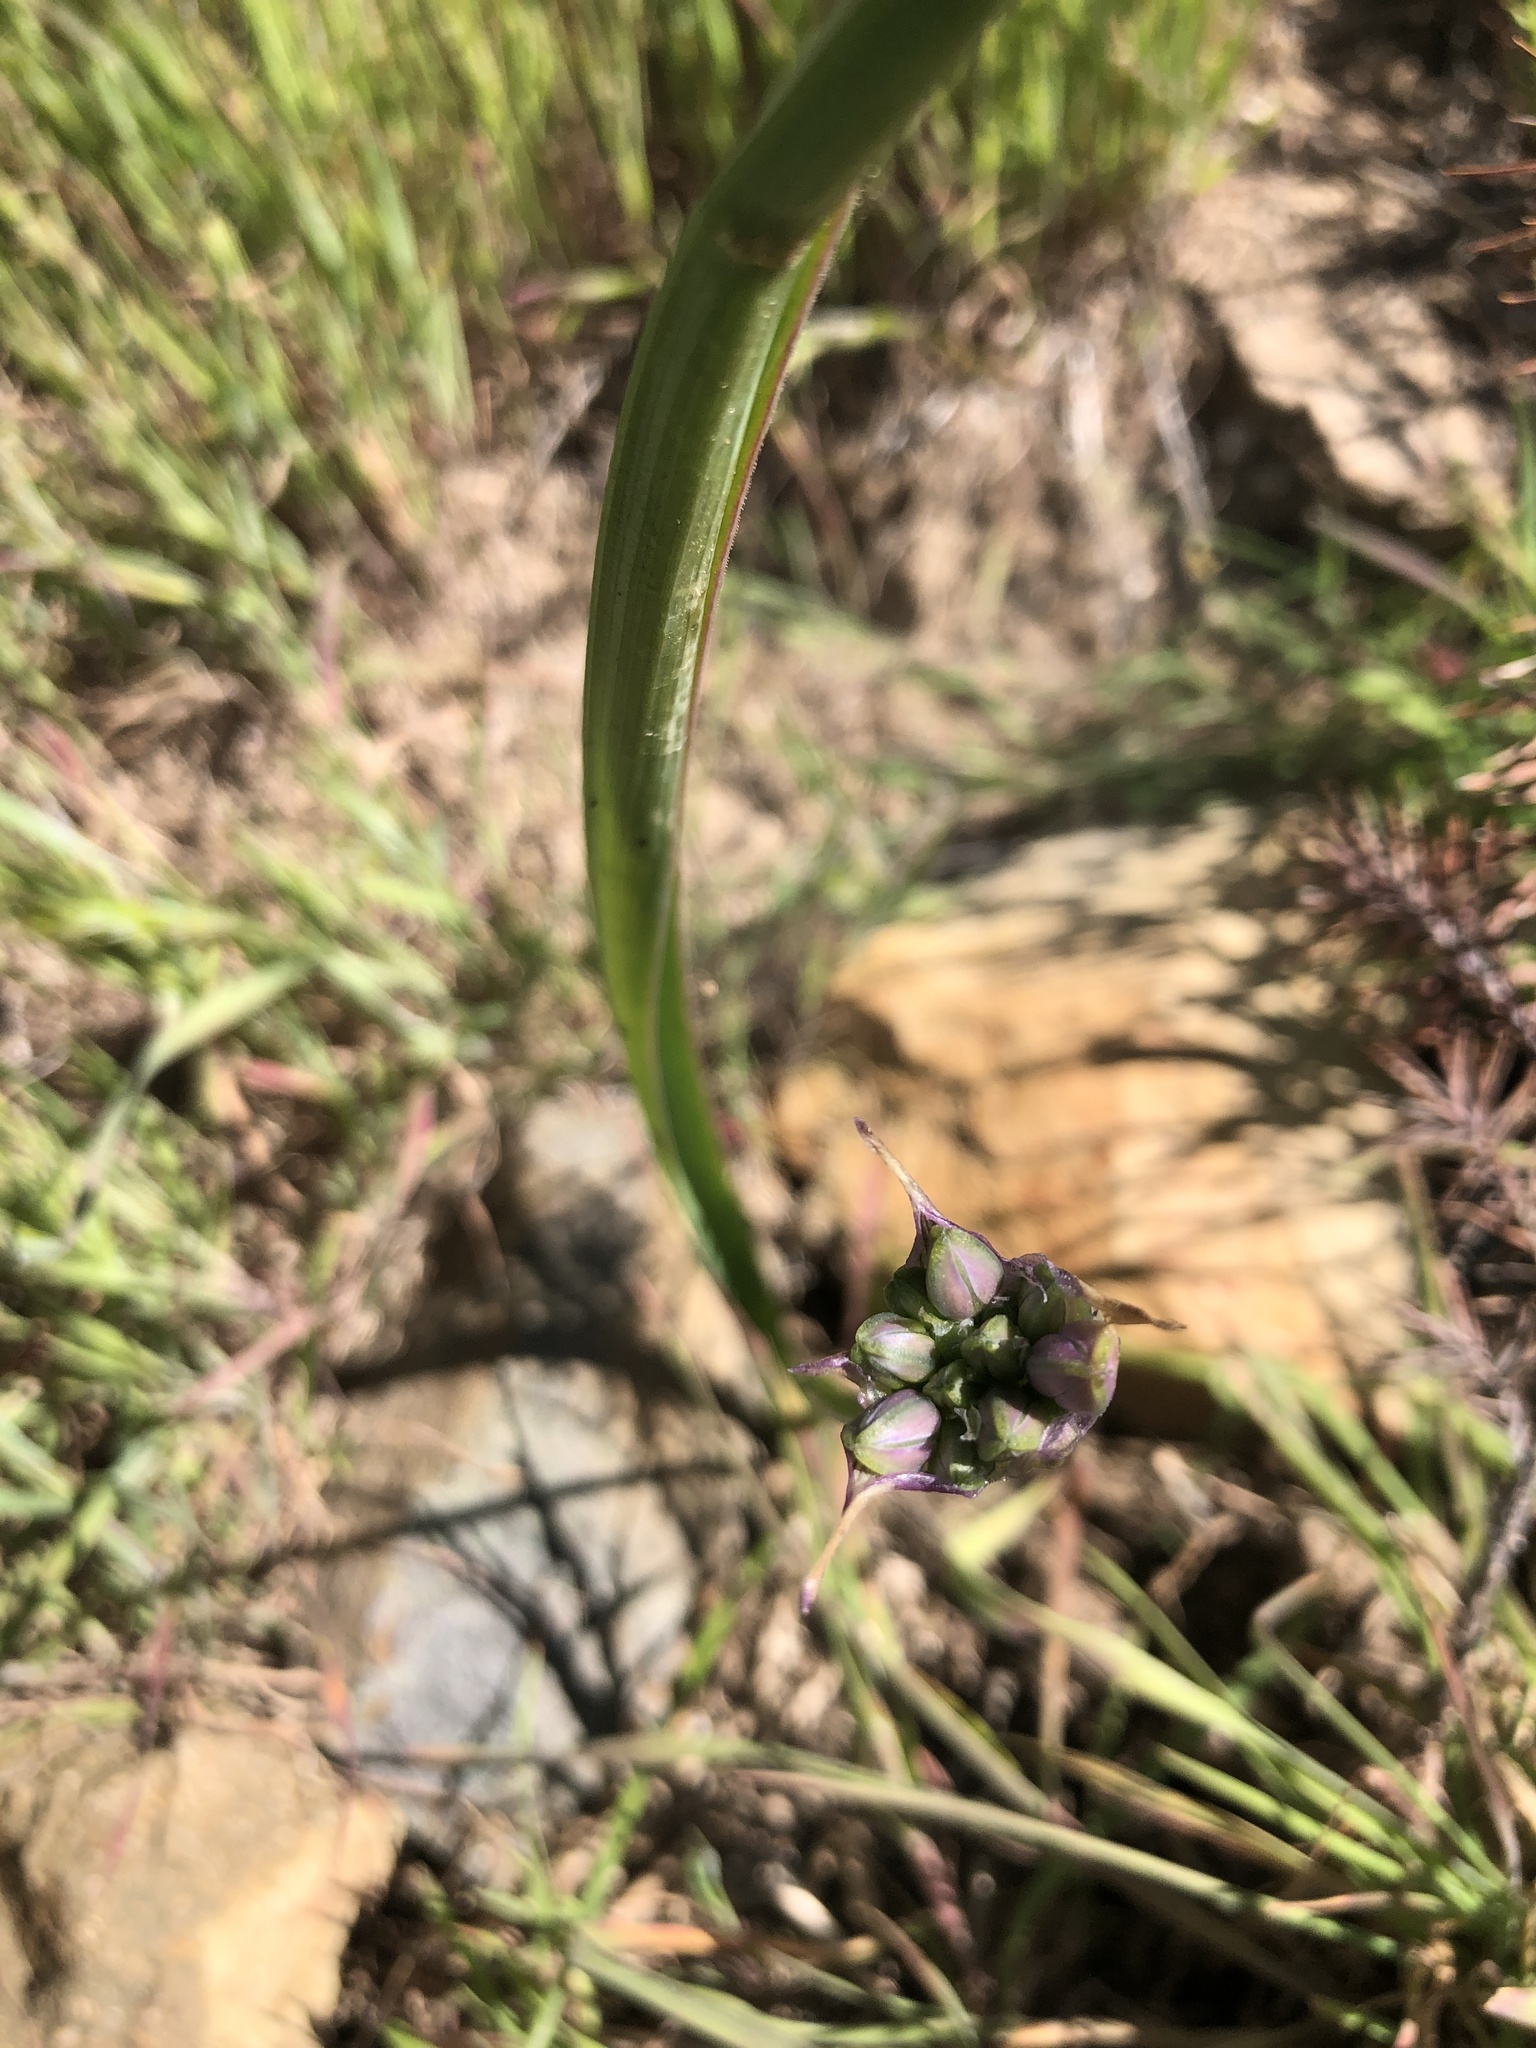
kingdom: Plantae
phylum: Tracheophyta
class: Liliopsida
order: Asparagales
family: Asparagaceae
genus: Dipterostemon
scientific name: Dipterostemon capitatus
